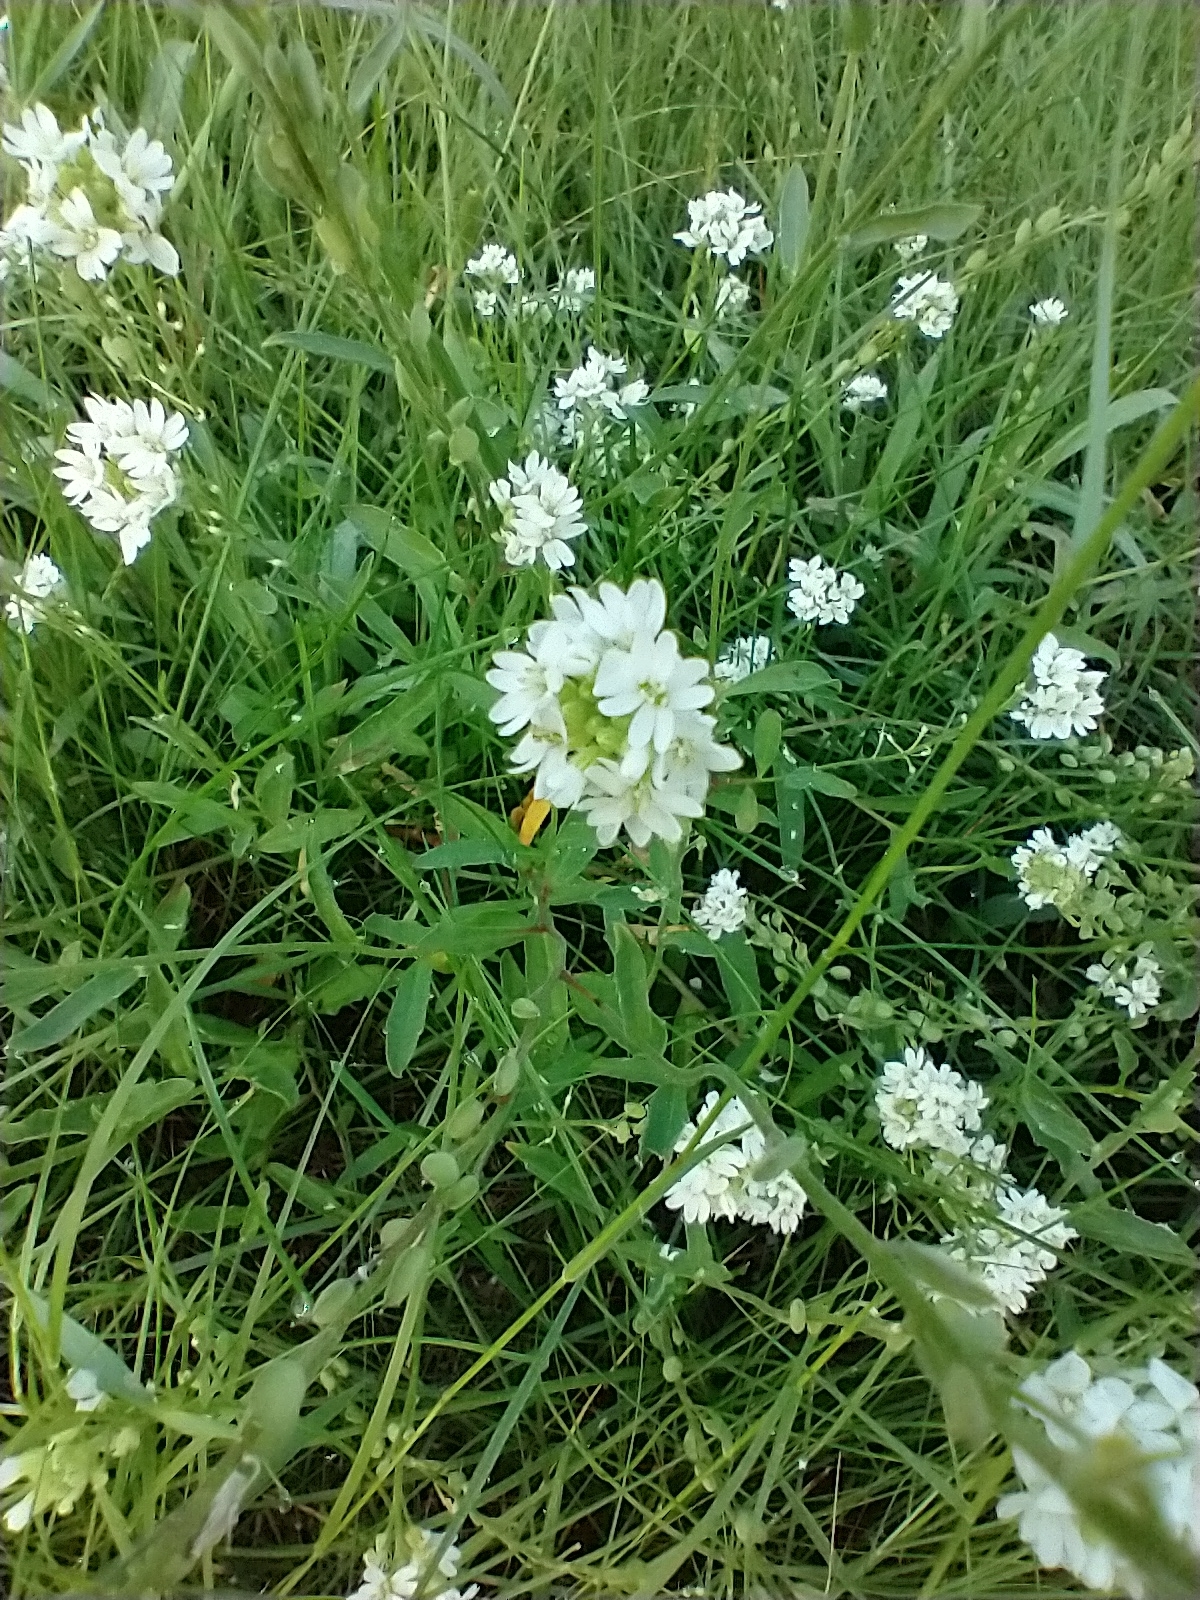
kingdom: Plantae
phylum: Tracheophyta
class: Magnoliopsida
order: Brassicales
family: Brassicaceae
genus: Berteroa
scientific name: Berteroa incana
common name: Hoary alison
